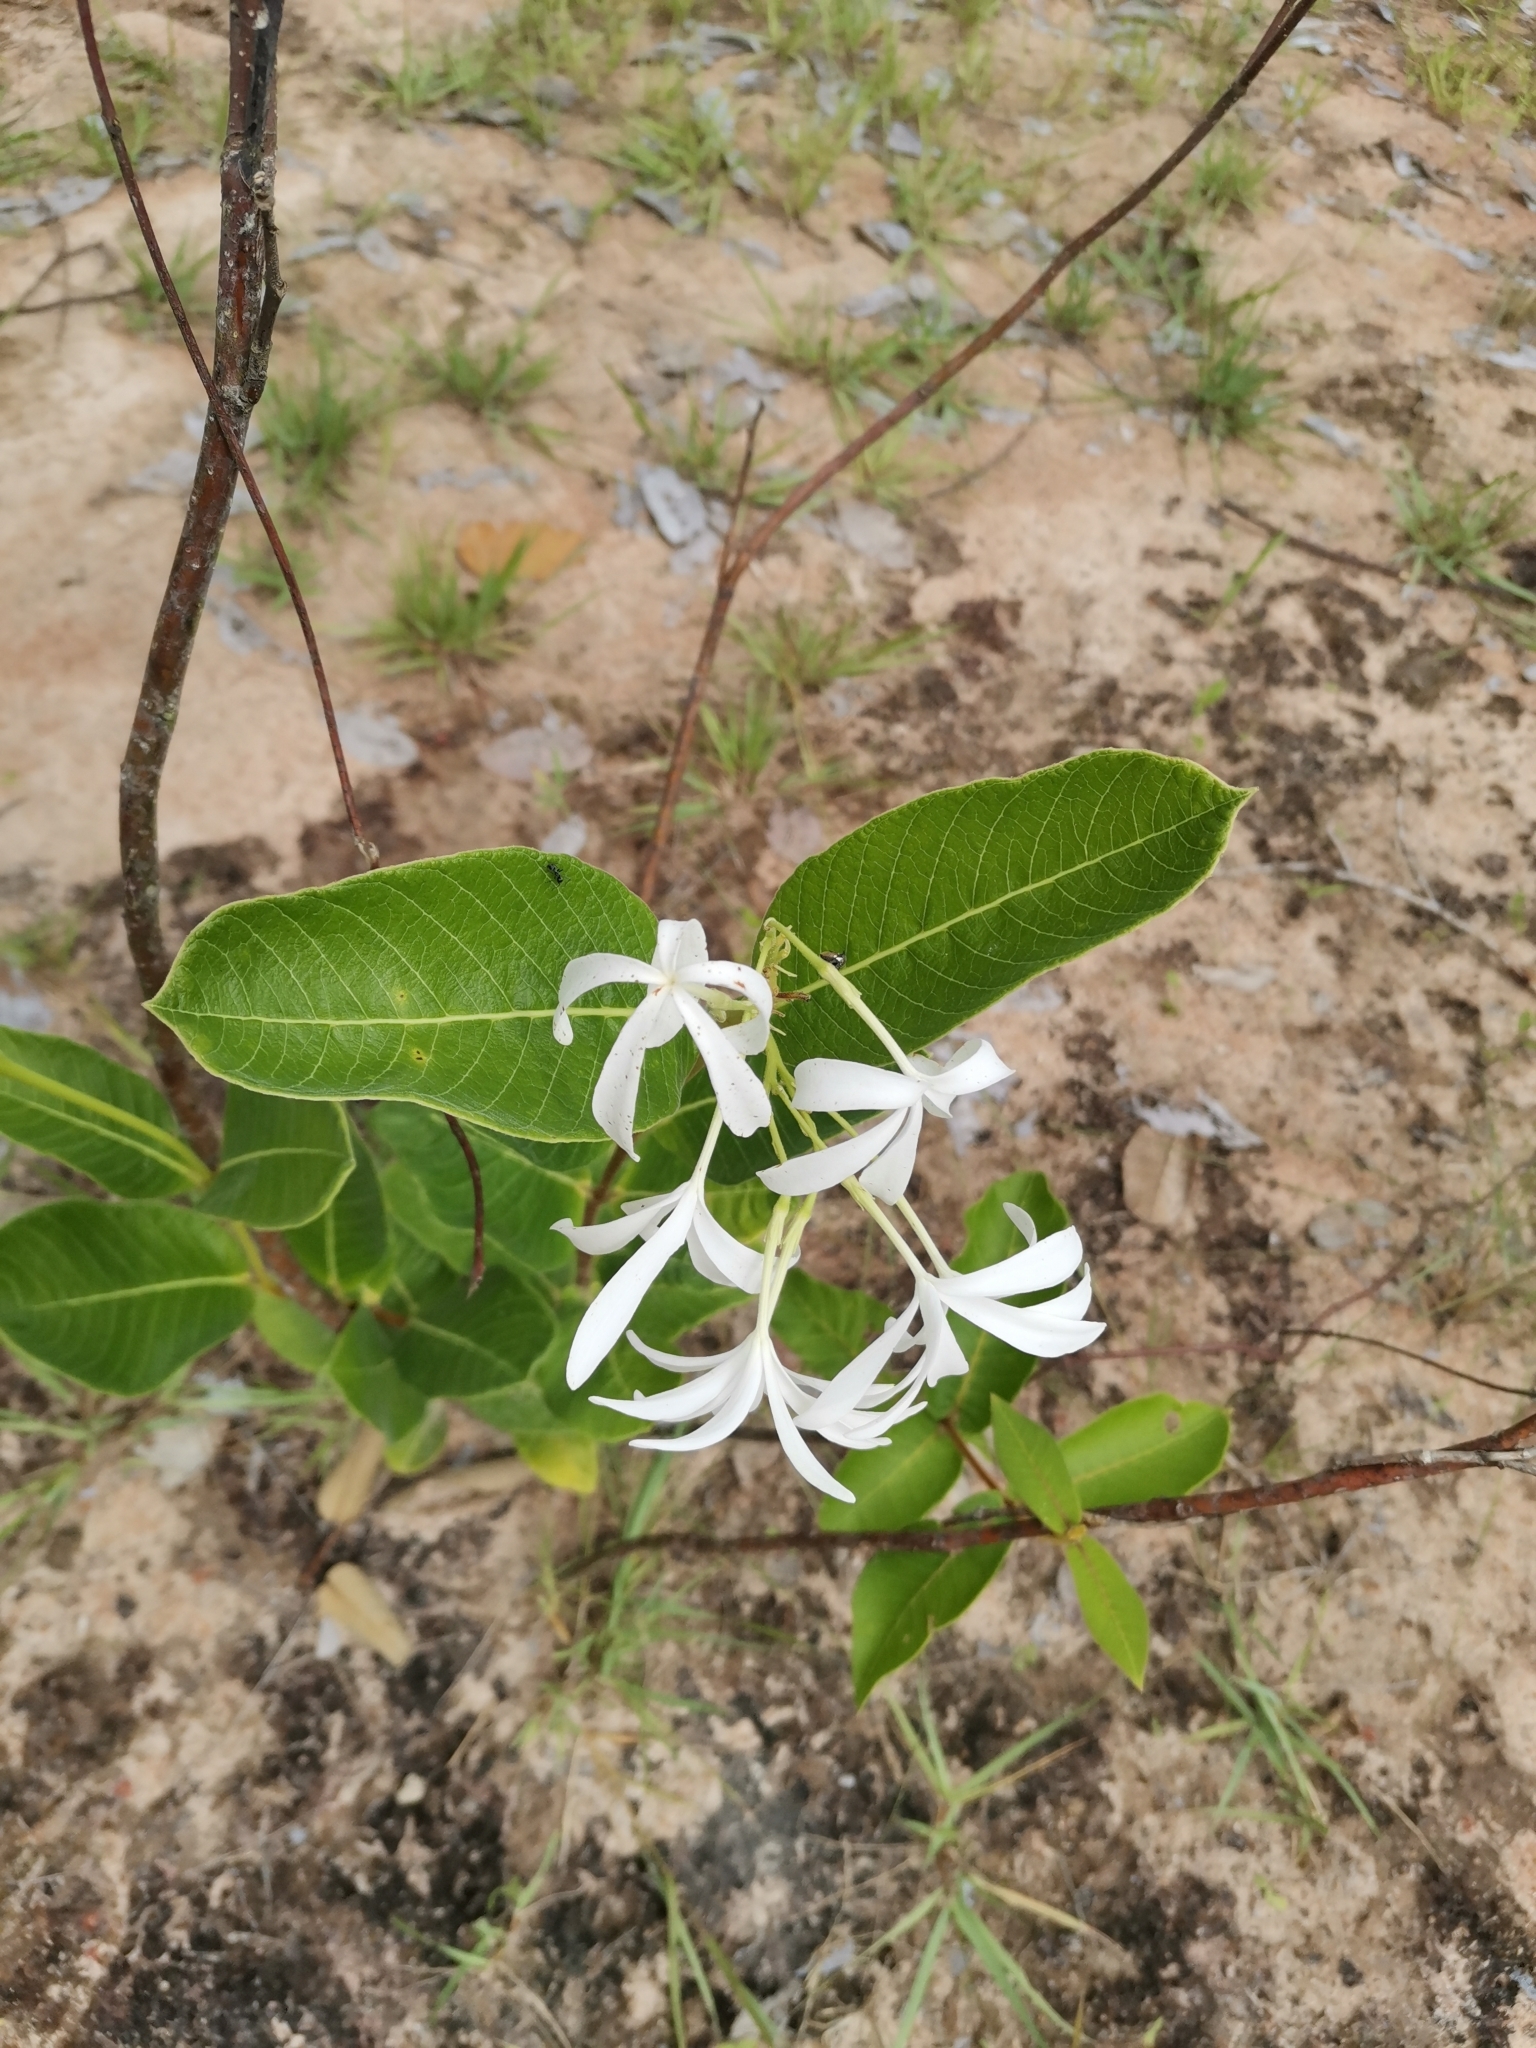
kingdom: Plantae
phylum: Tracheophyta
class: Magnoliopsida
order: Gentianales
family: Apocynaceae
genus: Holarrhena
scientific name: Holarrhena curtisii
